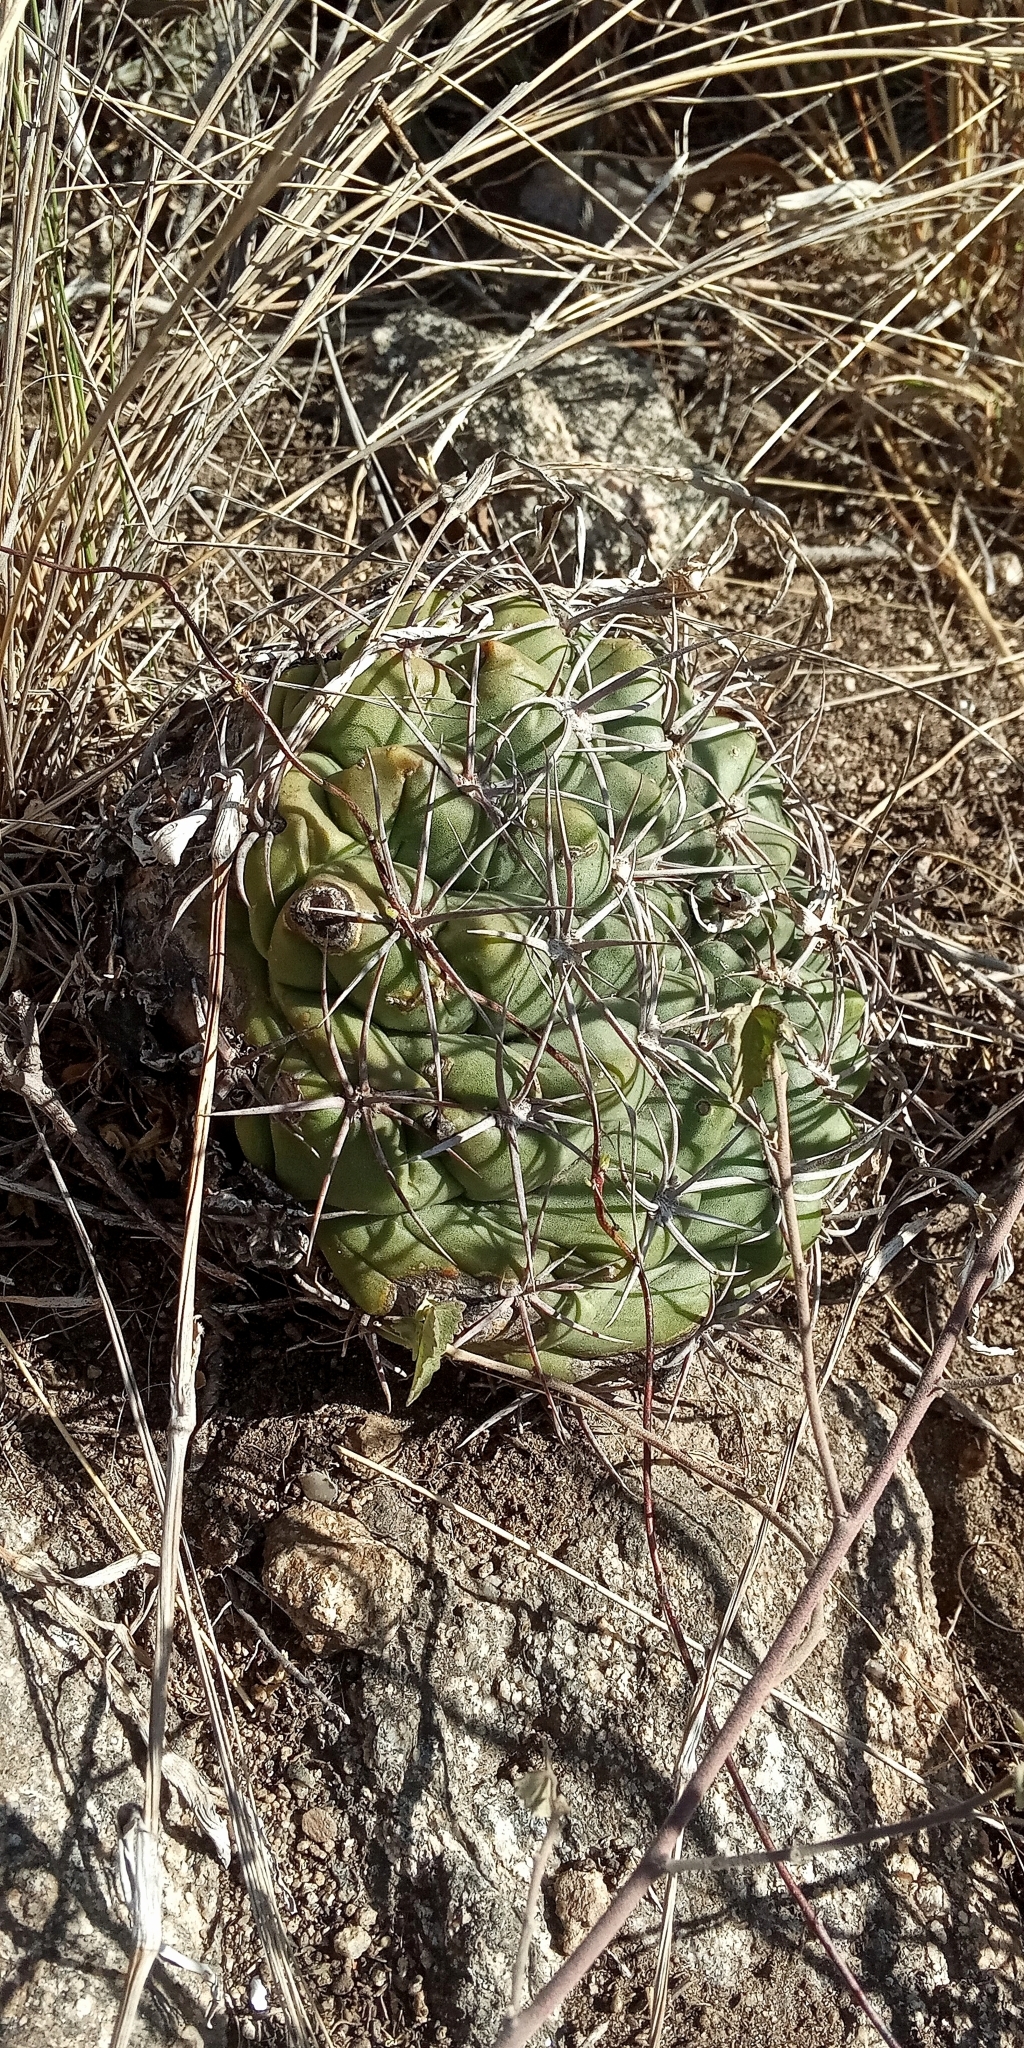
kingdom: Plantae
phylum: Tracheophyta
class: Magnoliopsida
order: Caryophyllales
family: Cactaceae
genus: Gymnocalycium
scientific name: Gymnocalycium mostii
